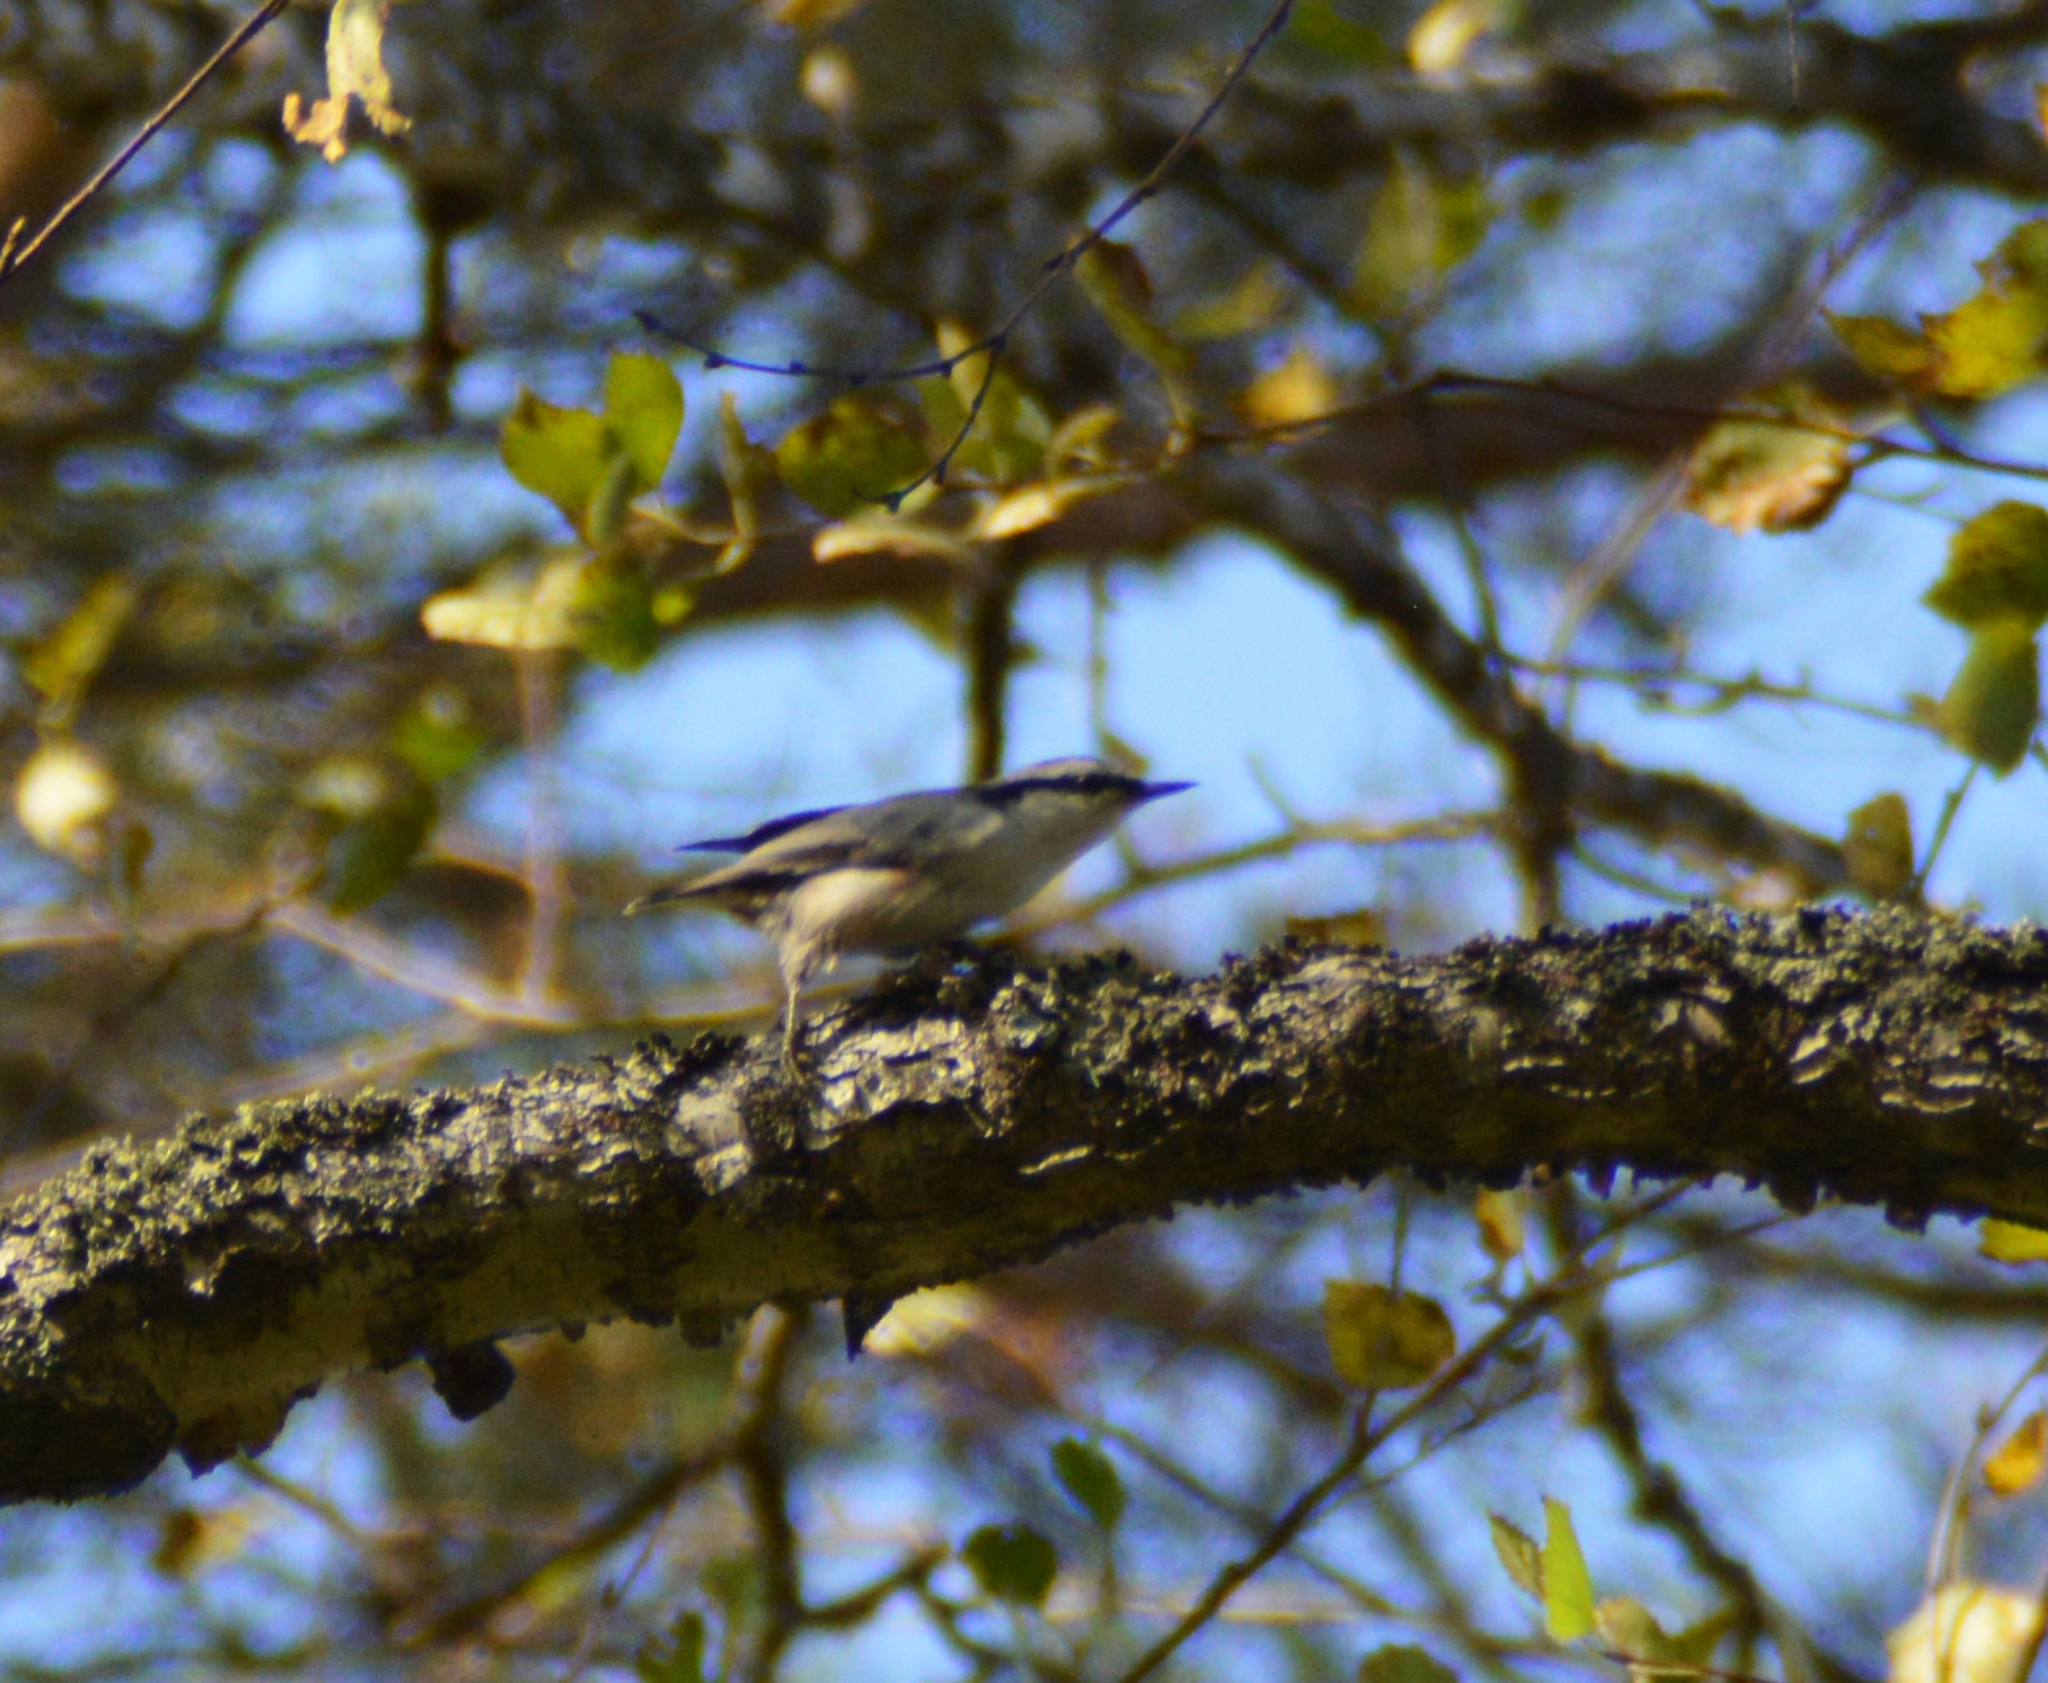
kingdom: Animalia
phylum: Chordata
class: Aves
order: Passeriformes
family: Sittidae
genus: Sitta
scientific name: Sitta europaea
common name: Eurasian nuthatch
